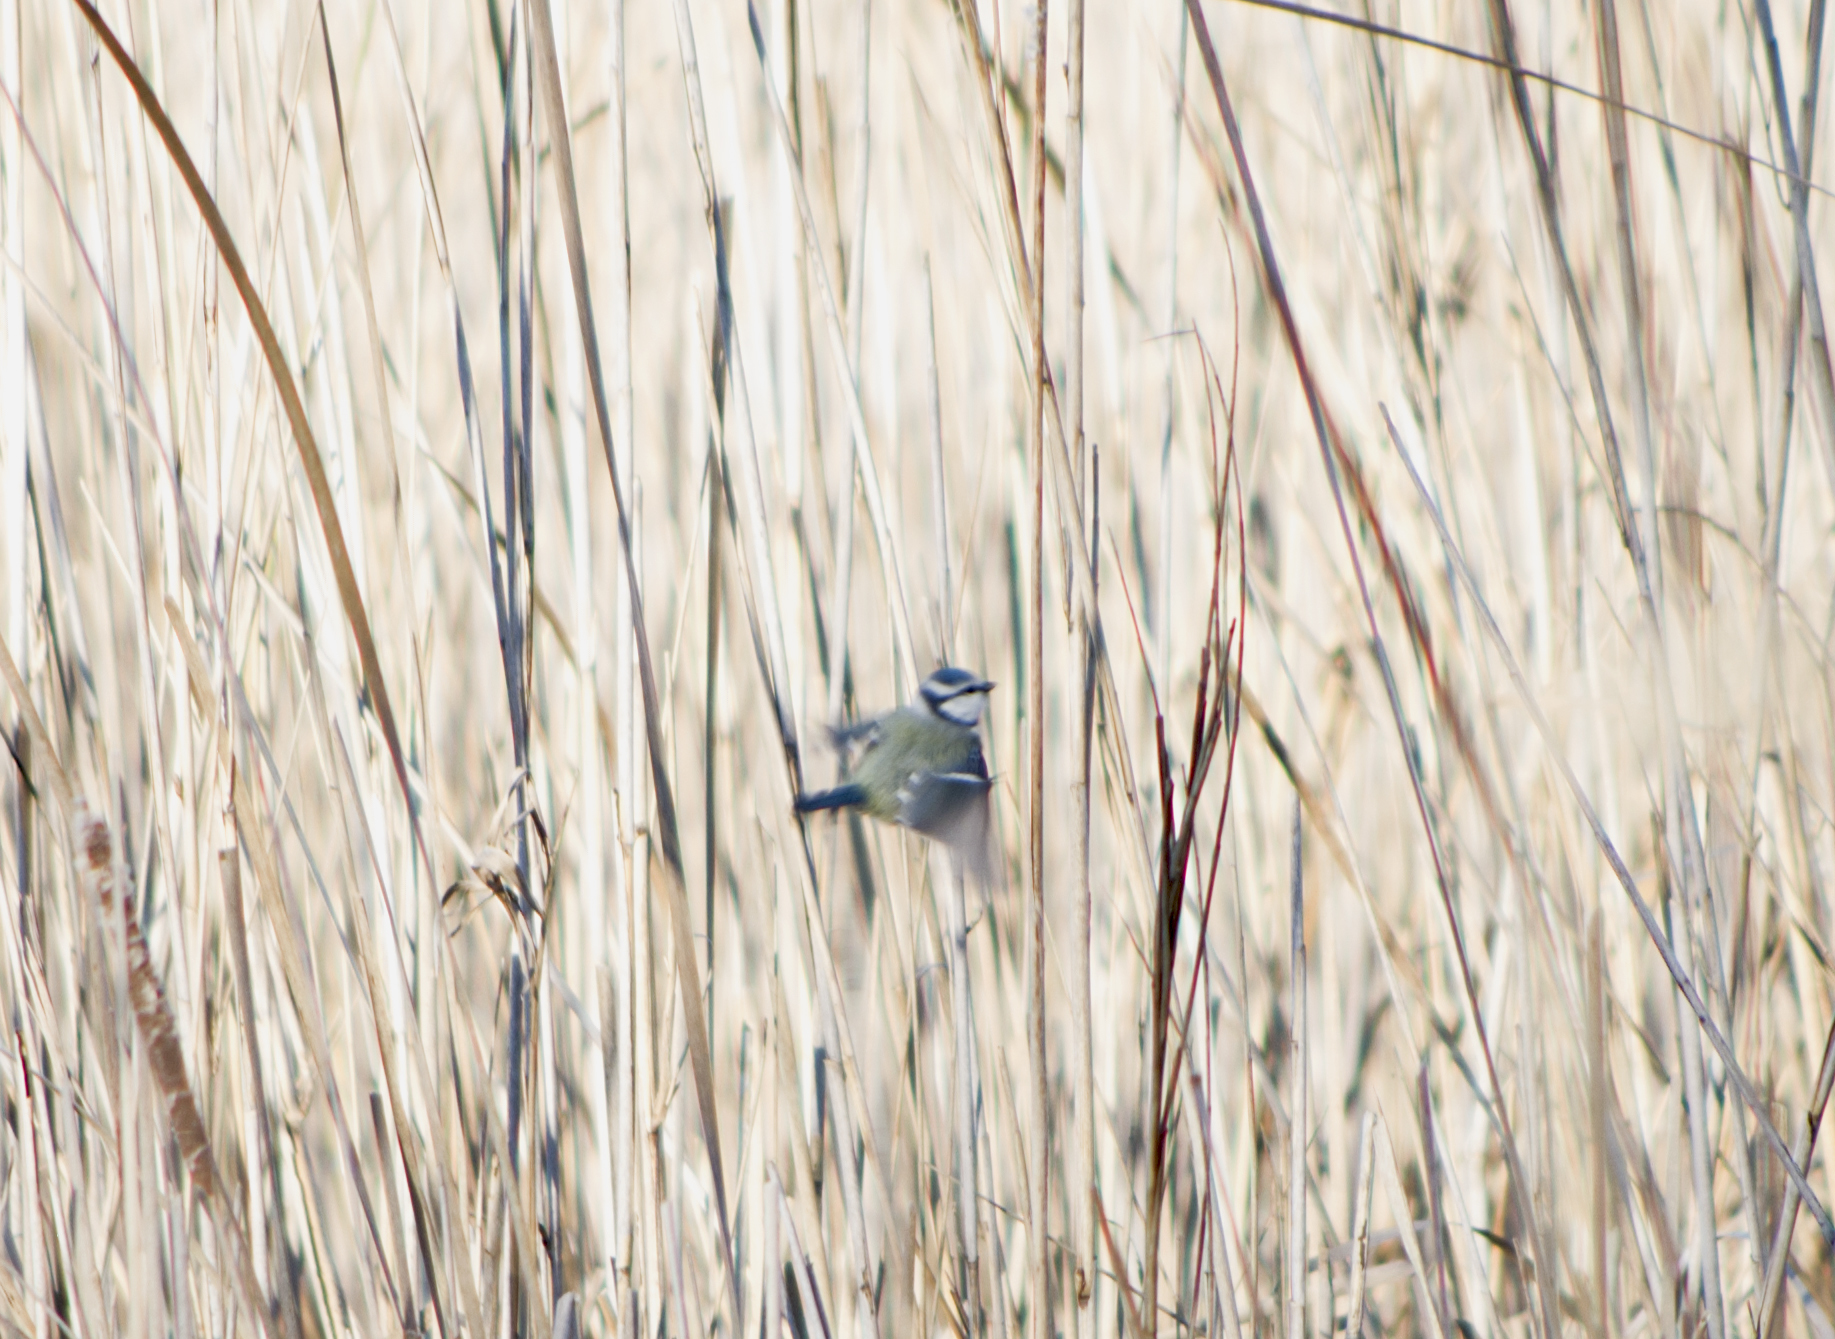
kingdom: Animalia
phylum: Chordata
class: Aves
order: Passeriformes
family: Paridae
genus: Cyanistes
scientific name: Cyanistes caeruleus
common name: Eurasian blue tit
